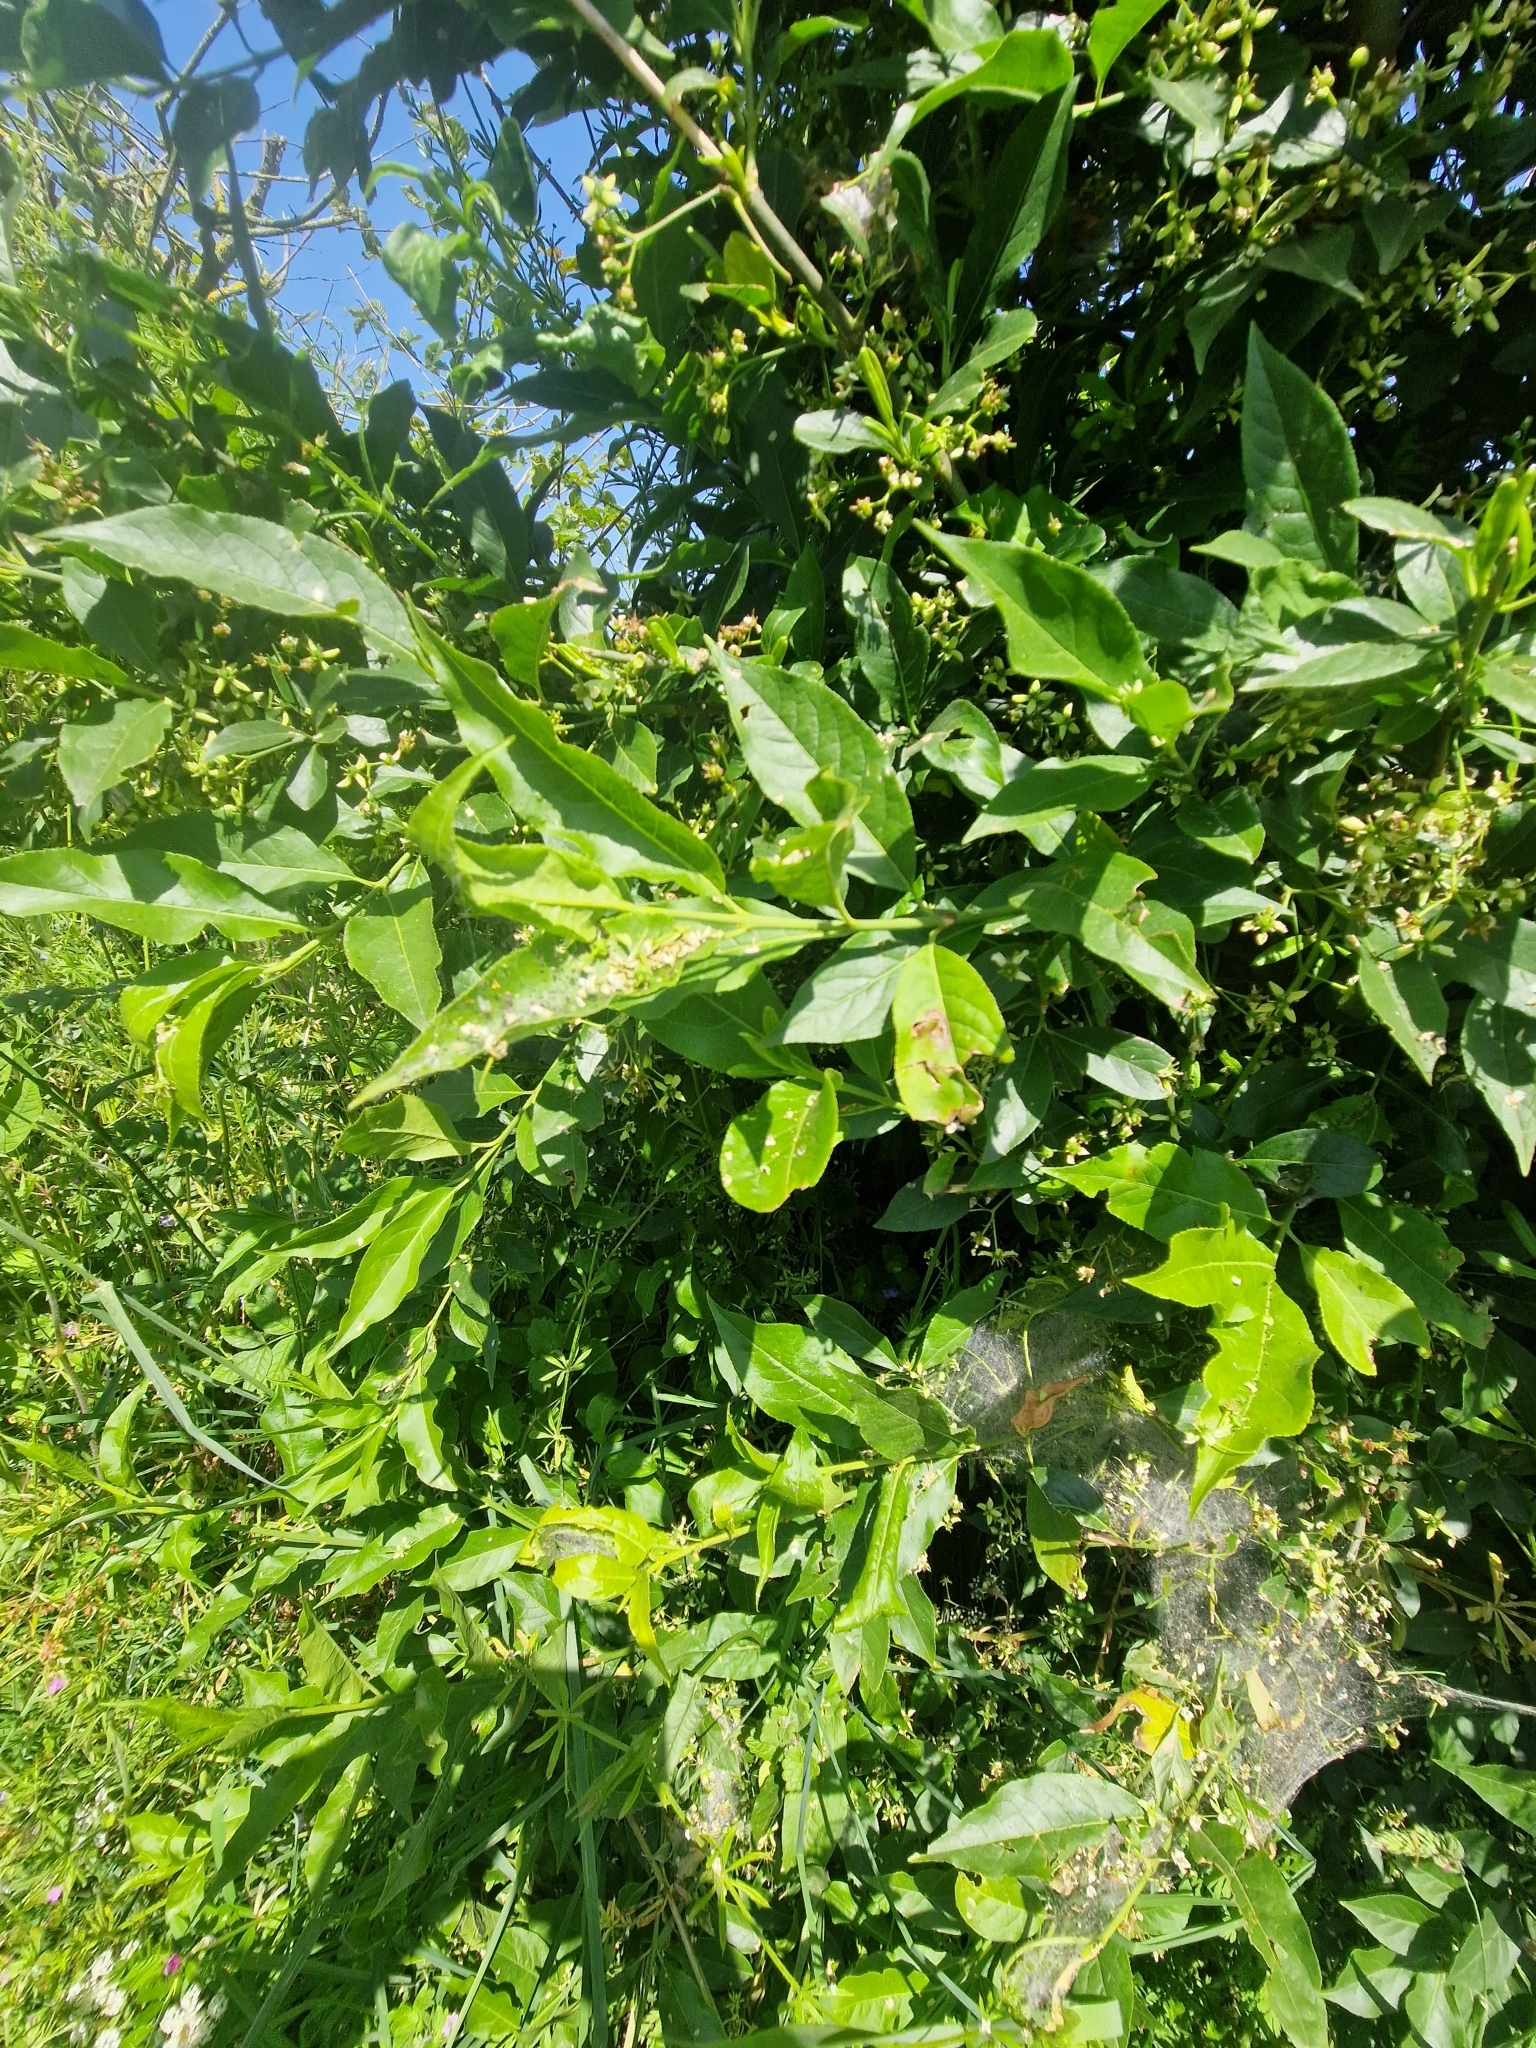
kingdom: Plantae
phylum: Tracheophyta
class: Magnoliopsida
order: Celastrales
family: Celastraceae
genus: Euonymus
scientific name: Euonymus europaeus
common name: Spindle
